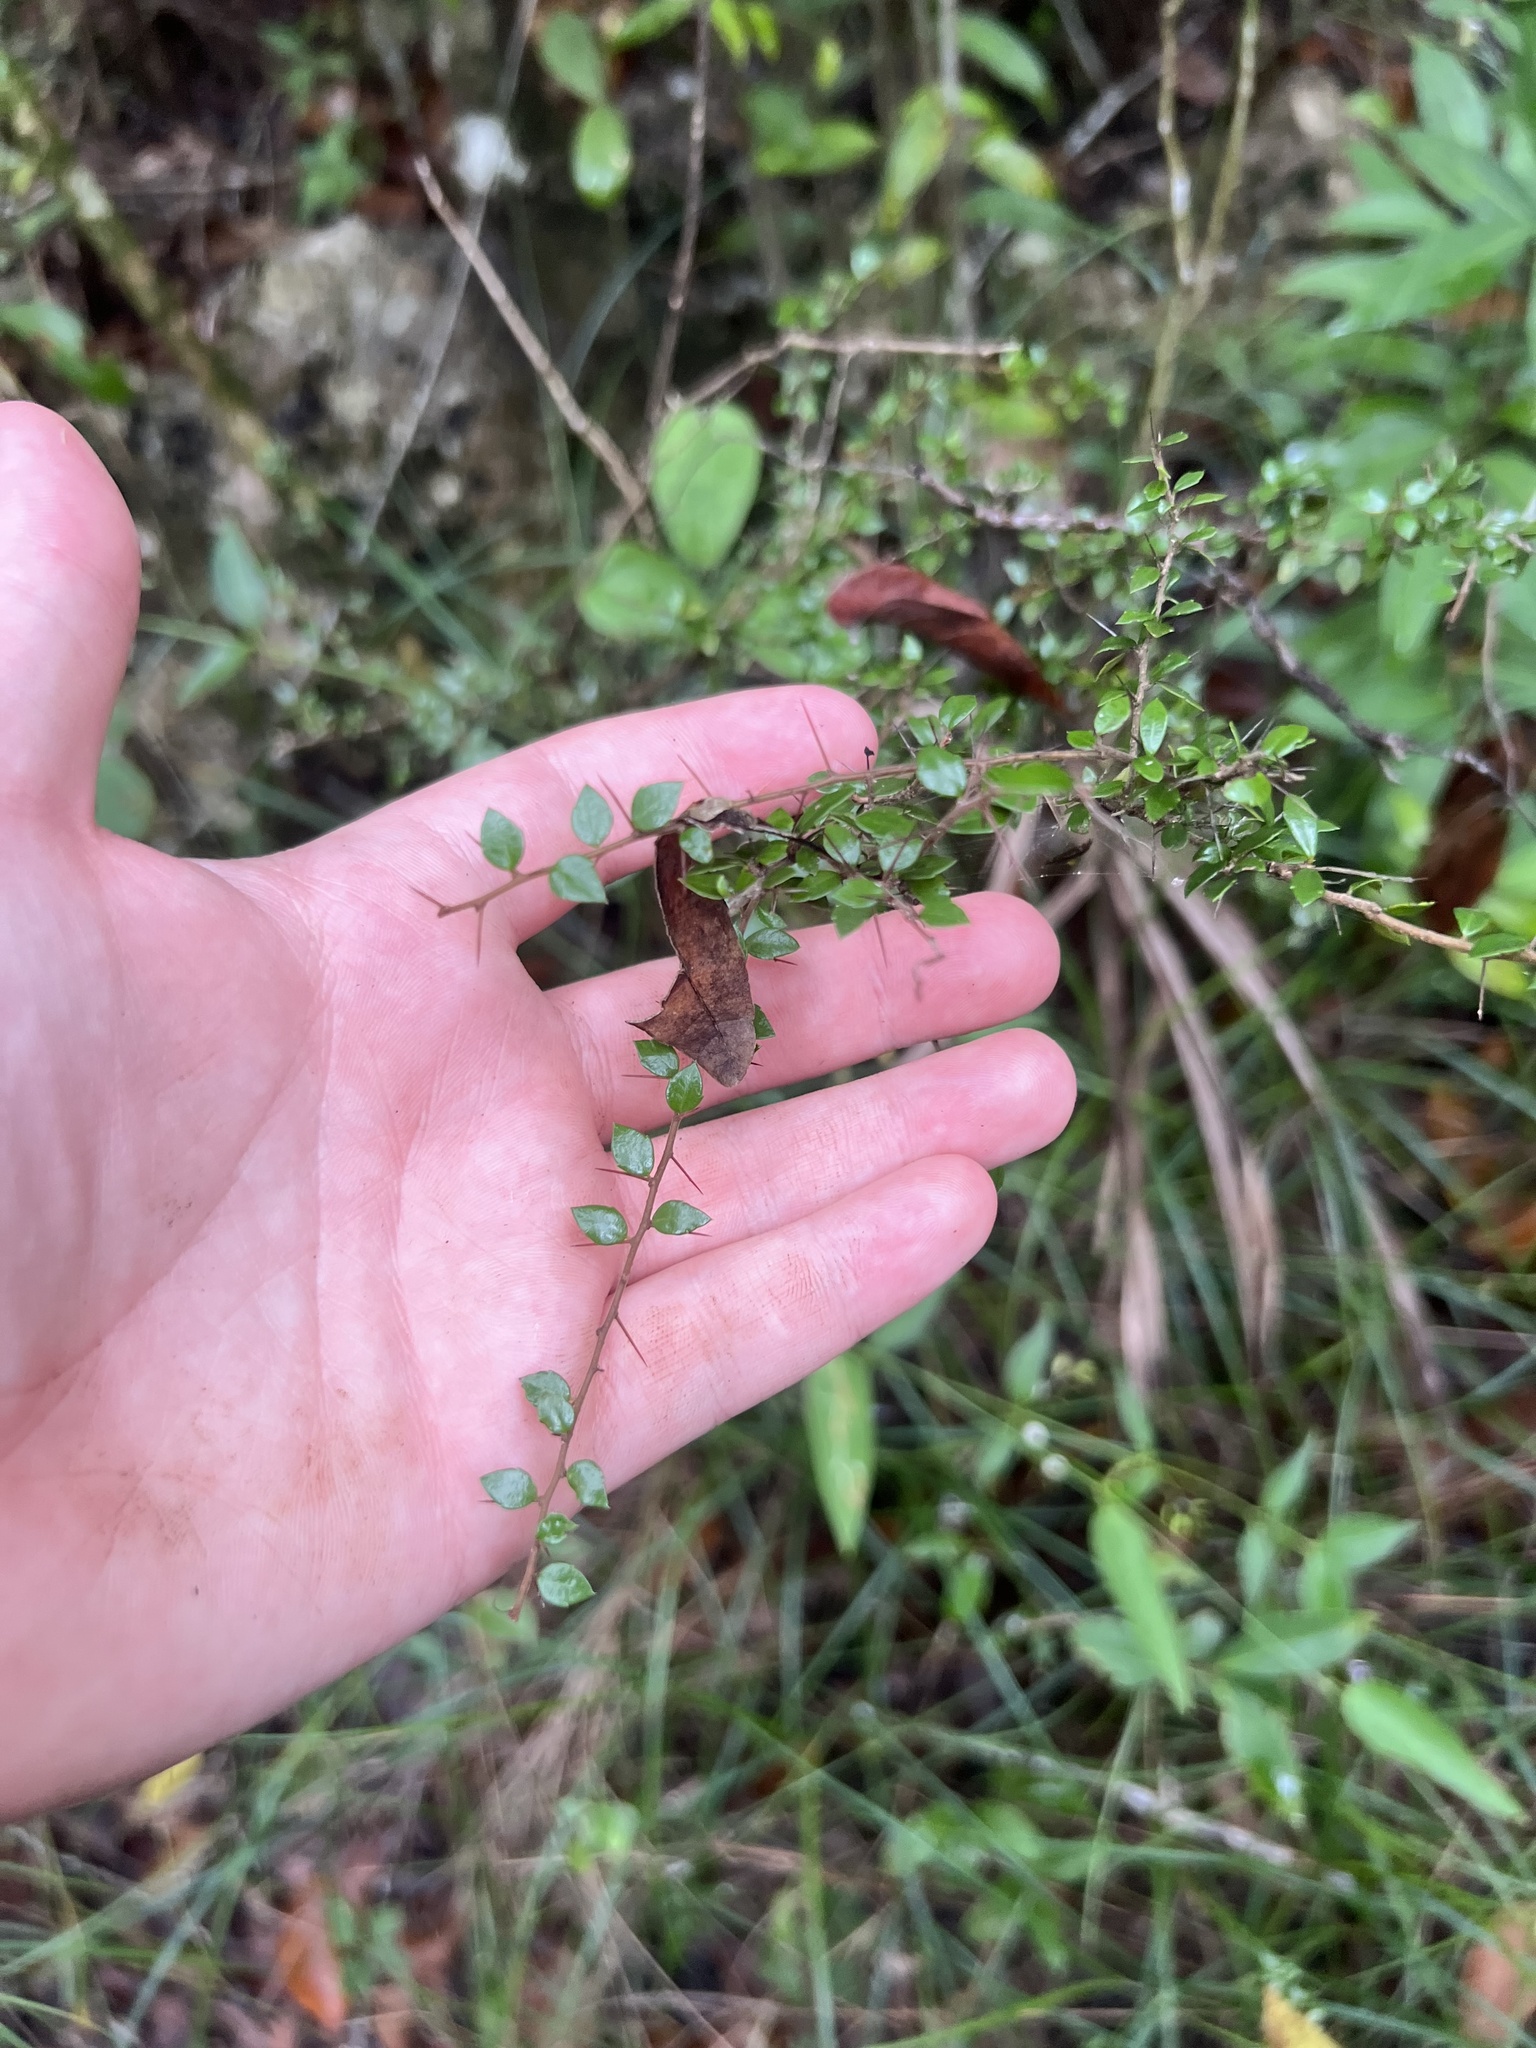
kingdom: Plantae
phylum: Tracheophyta
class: Magnoliopsida
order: Malpighiales
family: Salicaceae
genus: Xylosma
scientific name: Xylosma bahamense
